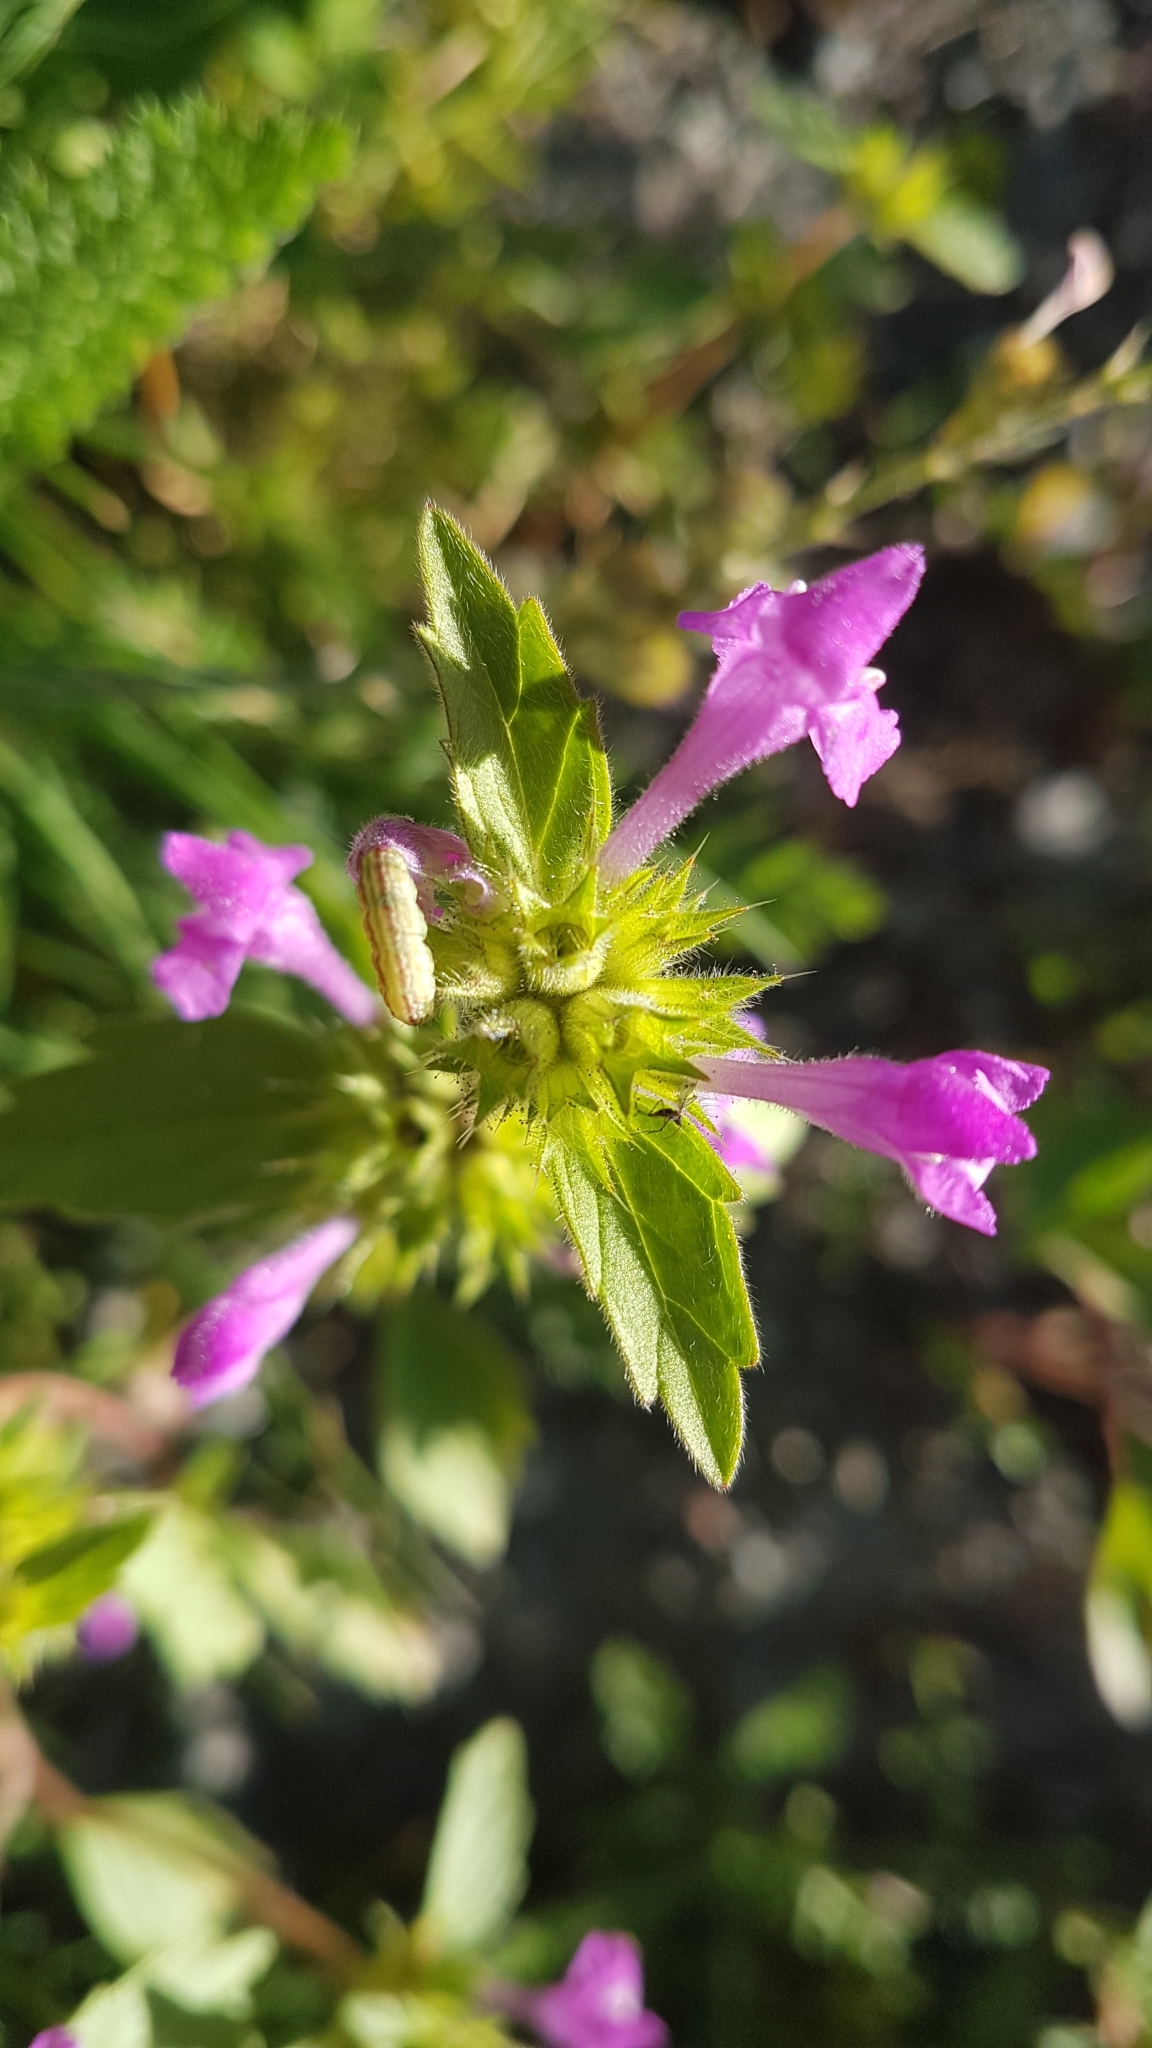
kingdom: Plantae
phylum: Tracheophyta
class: Magnoliopsida
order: Lamiales
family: Lamiaceae
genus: Clinopodium
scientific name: Clinopodium vulgare
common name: Wild basil
